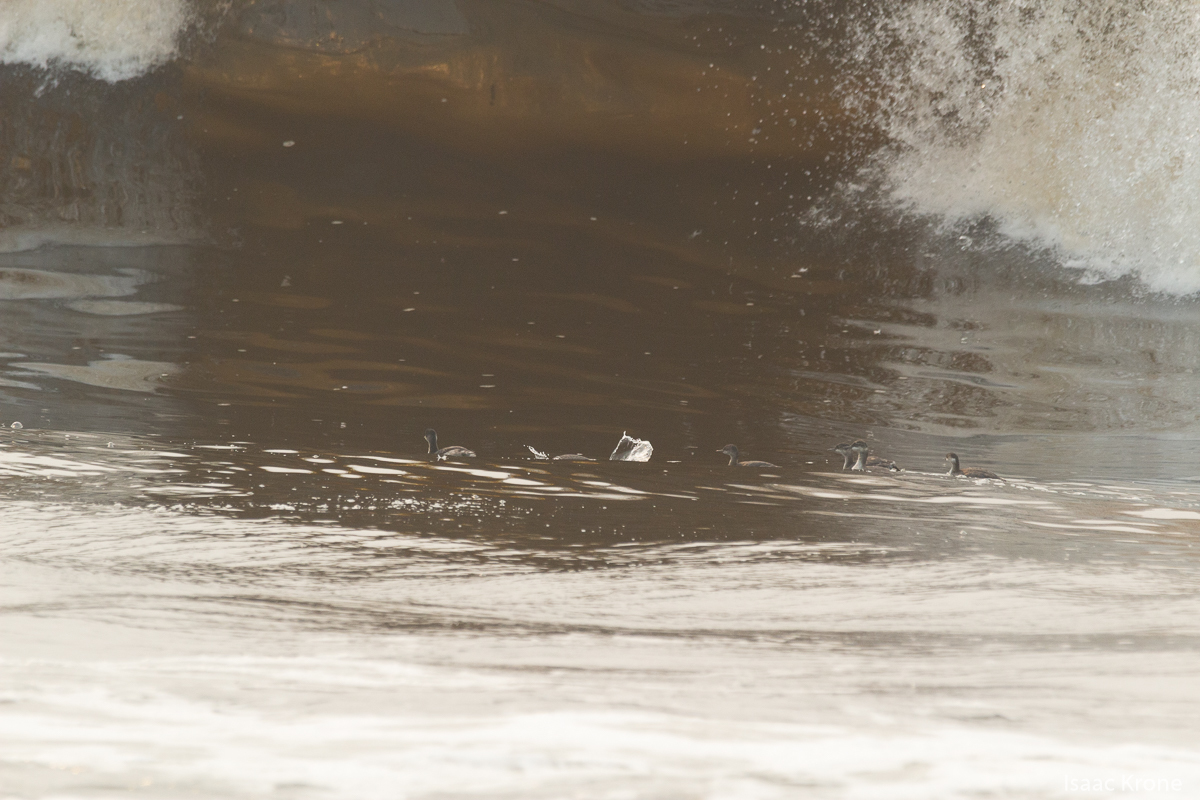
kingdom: Animalia
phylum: Chordata
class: Aves
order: Podicipediformes
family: Podicipedidae
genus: Podiceps
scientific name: Podiceps auritus
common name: Horned grebe
